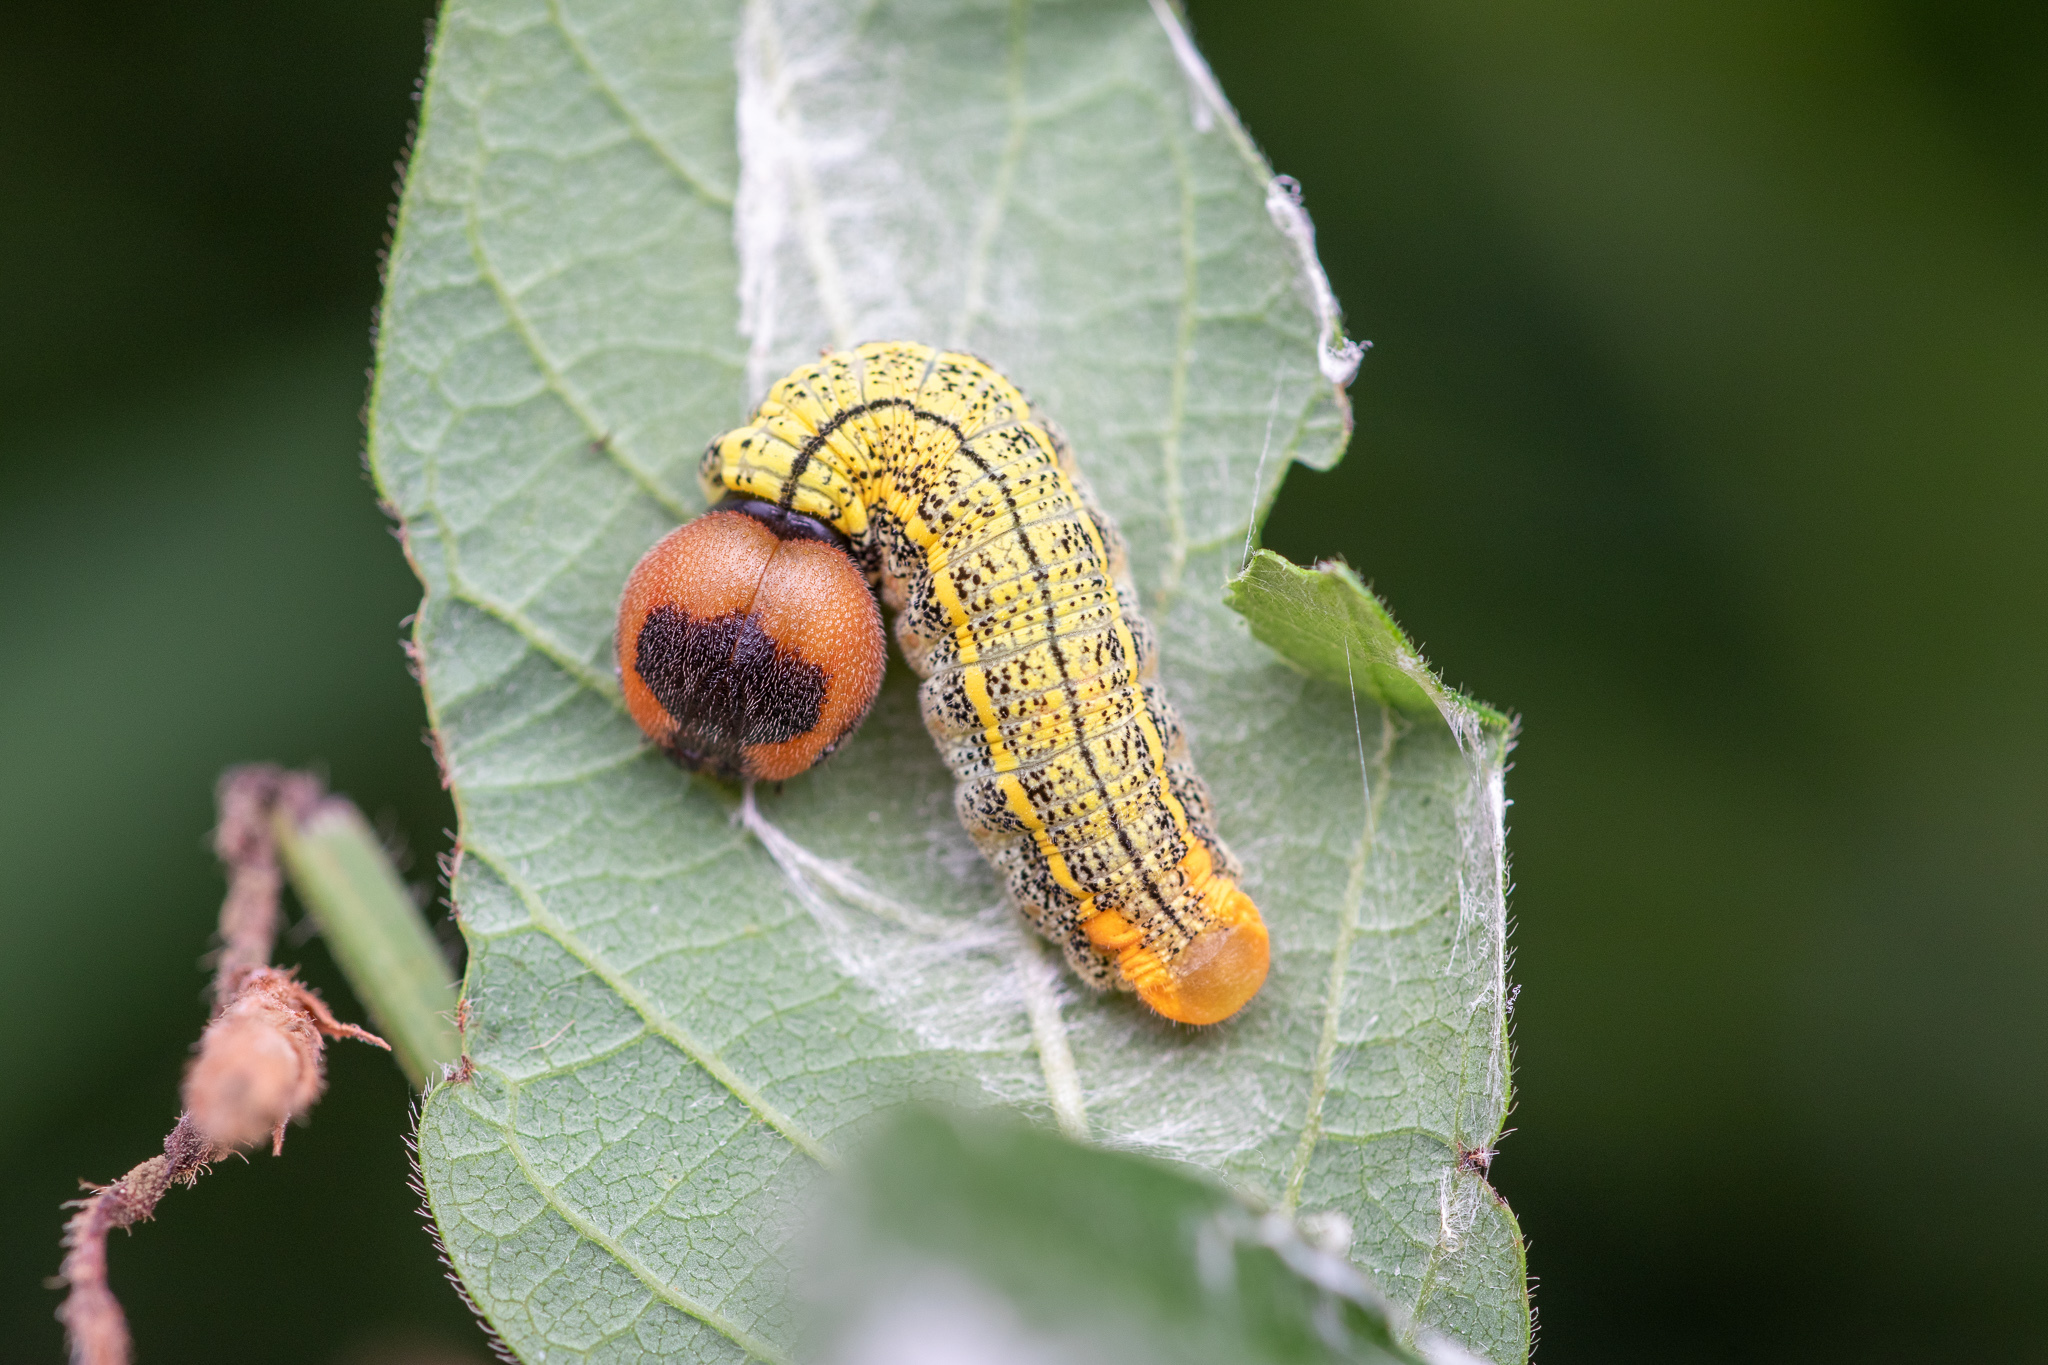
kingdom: Animalia
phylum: Arthropoda
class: Insecta
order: Lepidoptera
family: Hesperiidae
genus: Urbanus
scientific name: Urbanus proteus
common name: Long-tailed skipper
